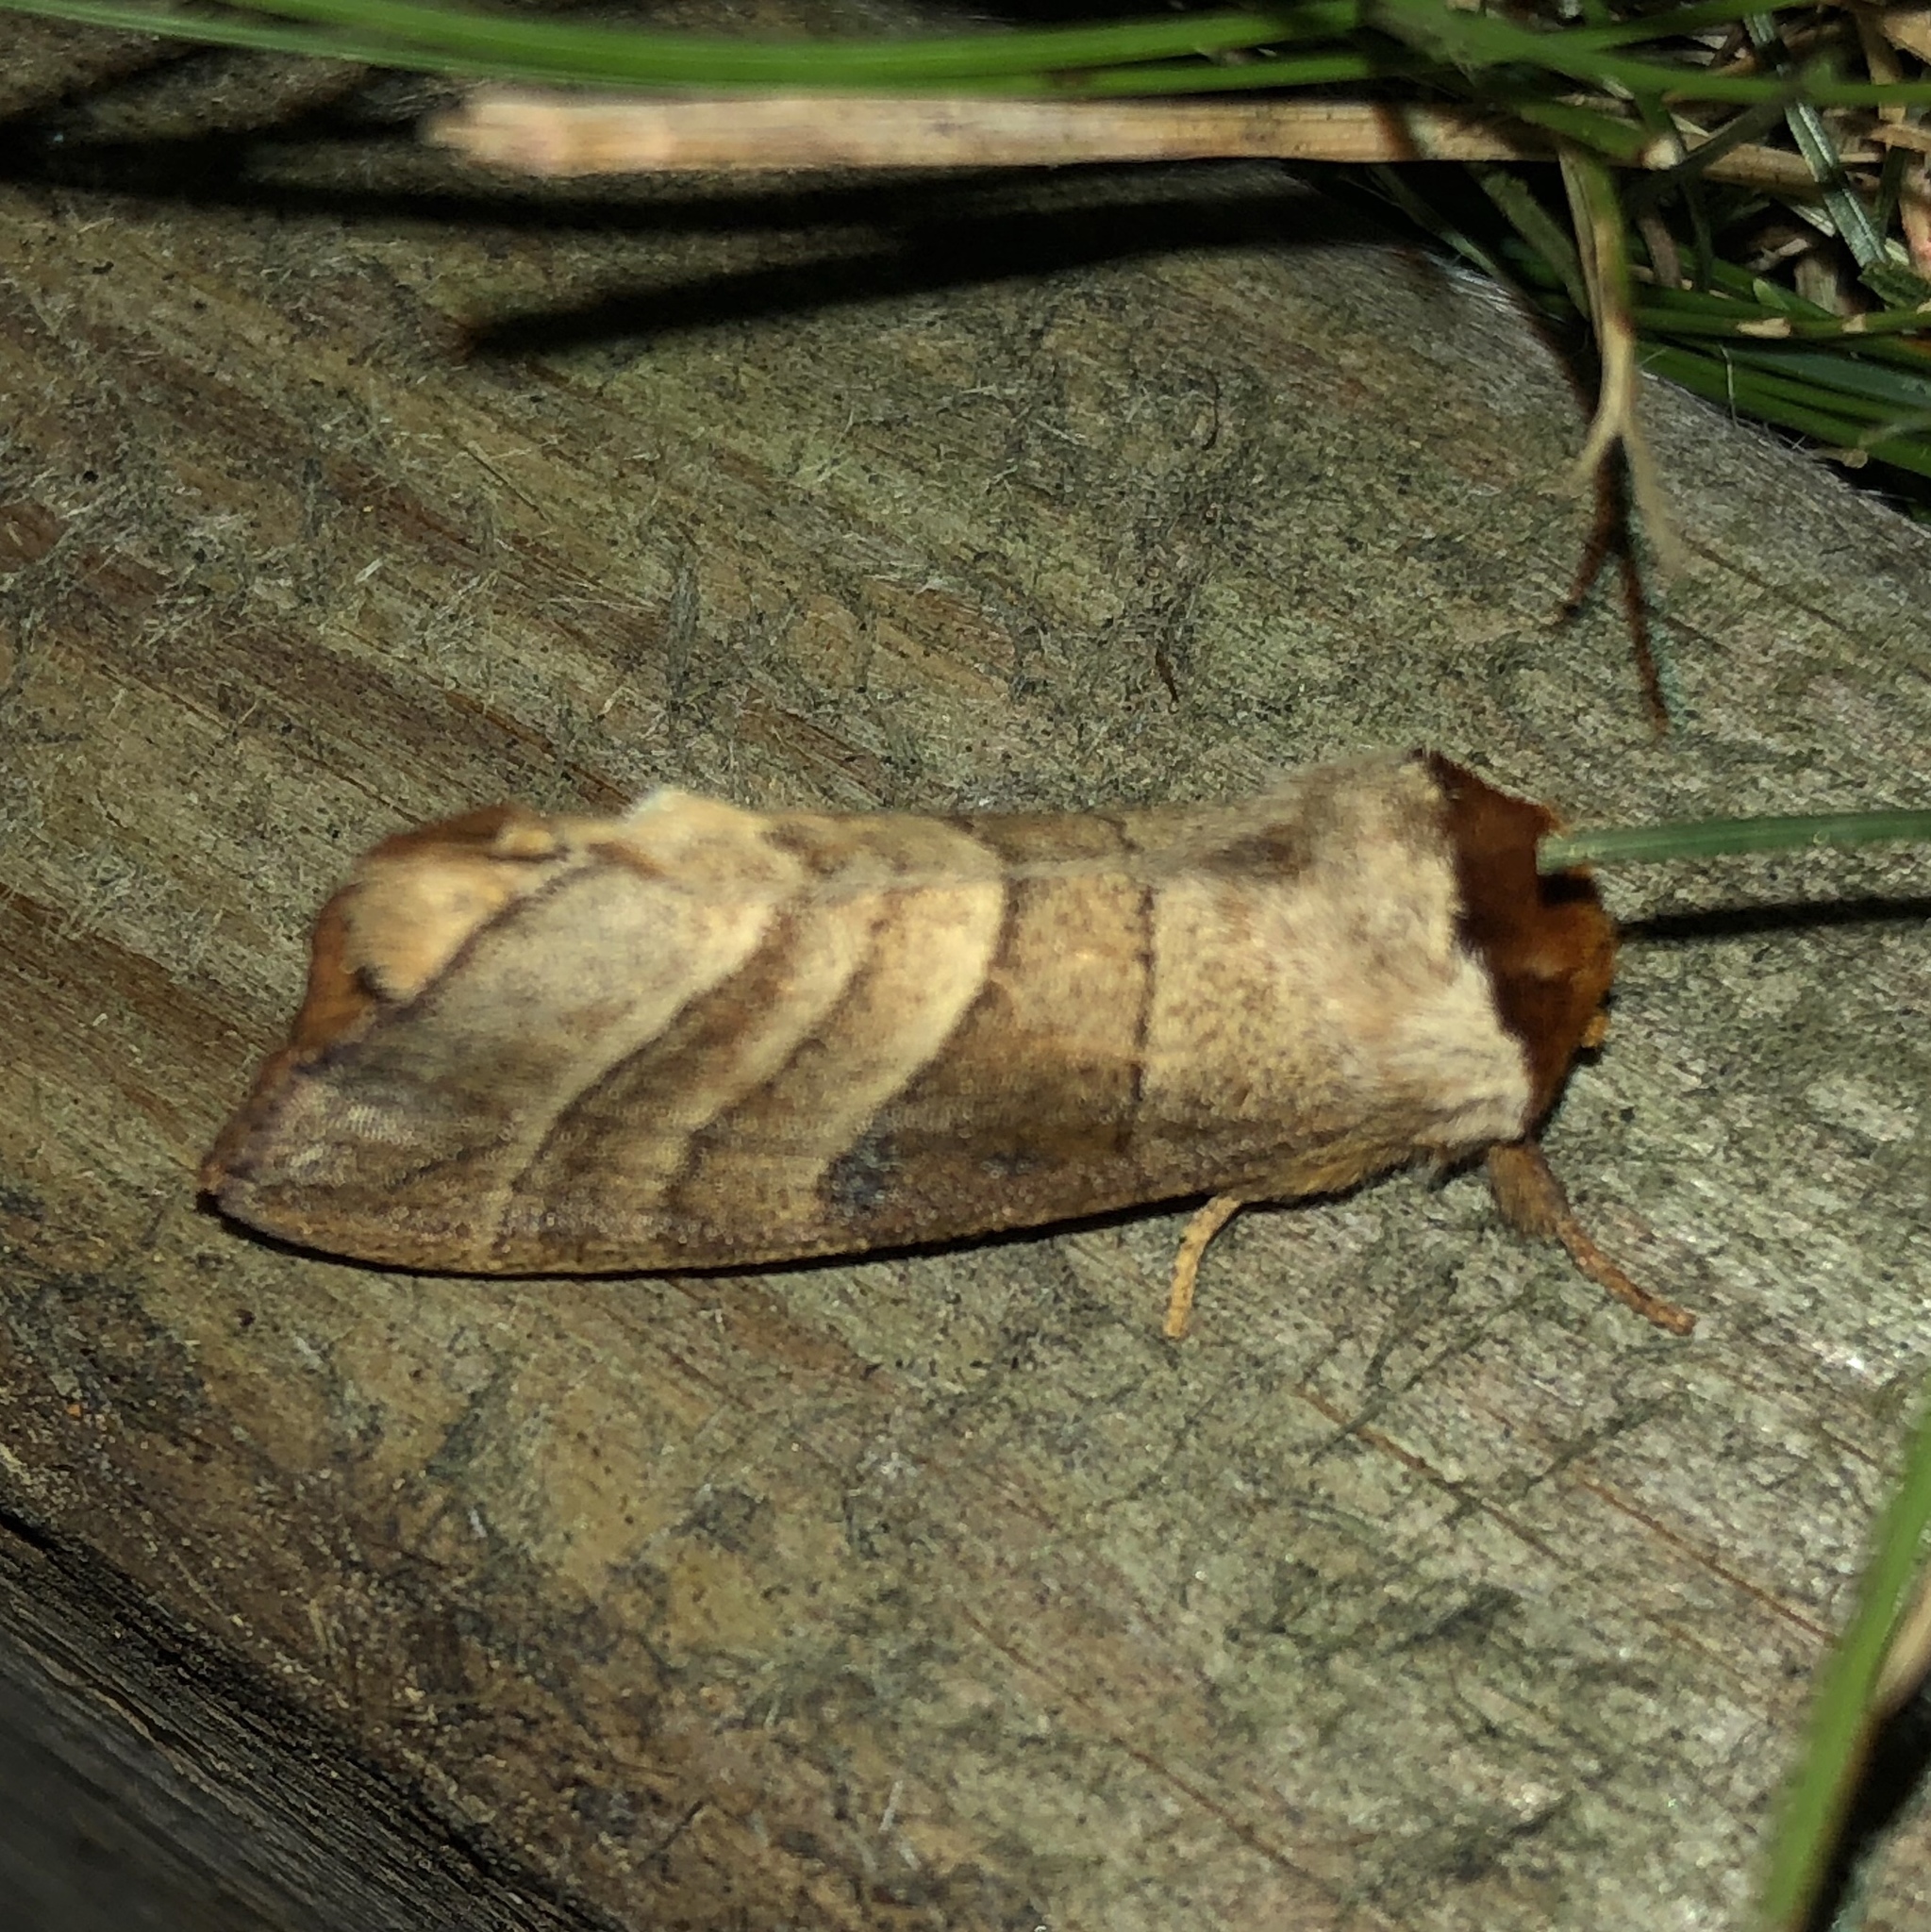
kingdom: Animalia
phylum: Arthropoda
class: Insecta
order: Lepidoptera
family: Notodontidae
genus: Datana
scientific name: Datana integerrima
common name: Walnut caterpillar
